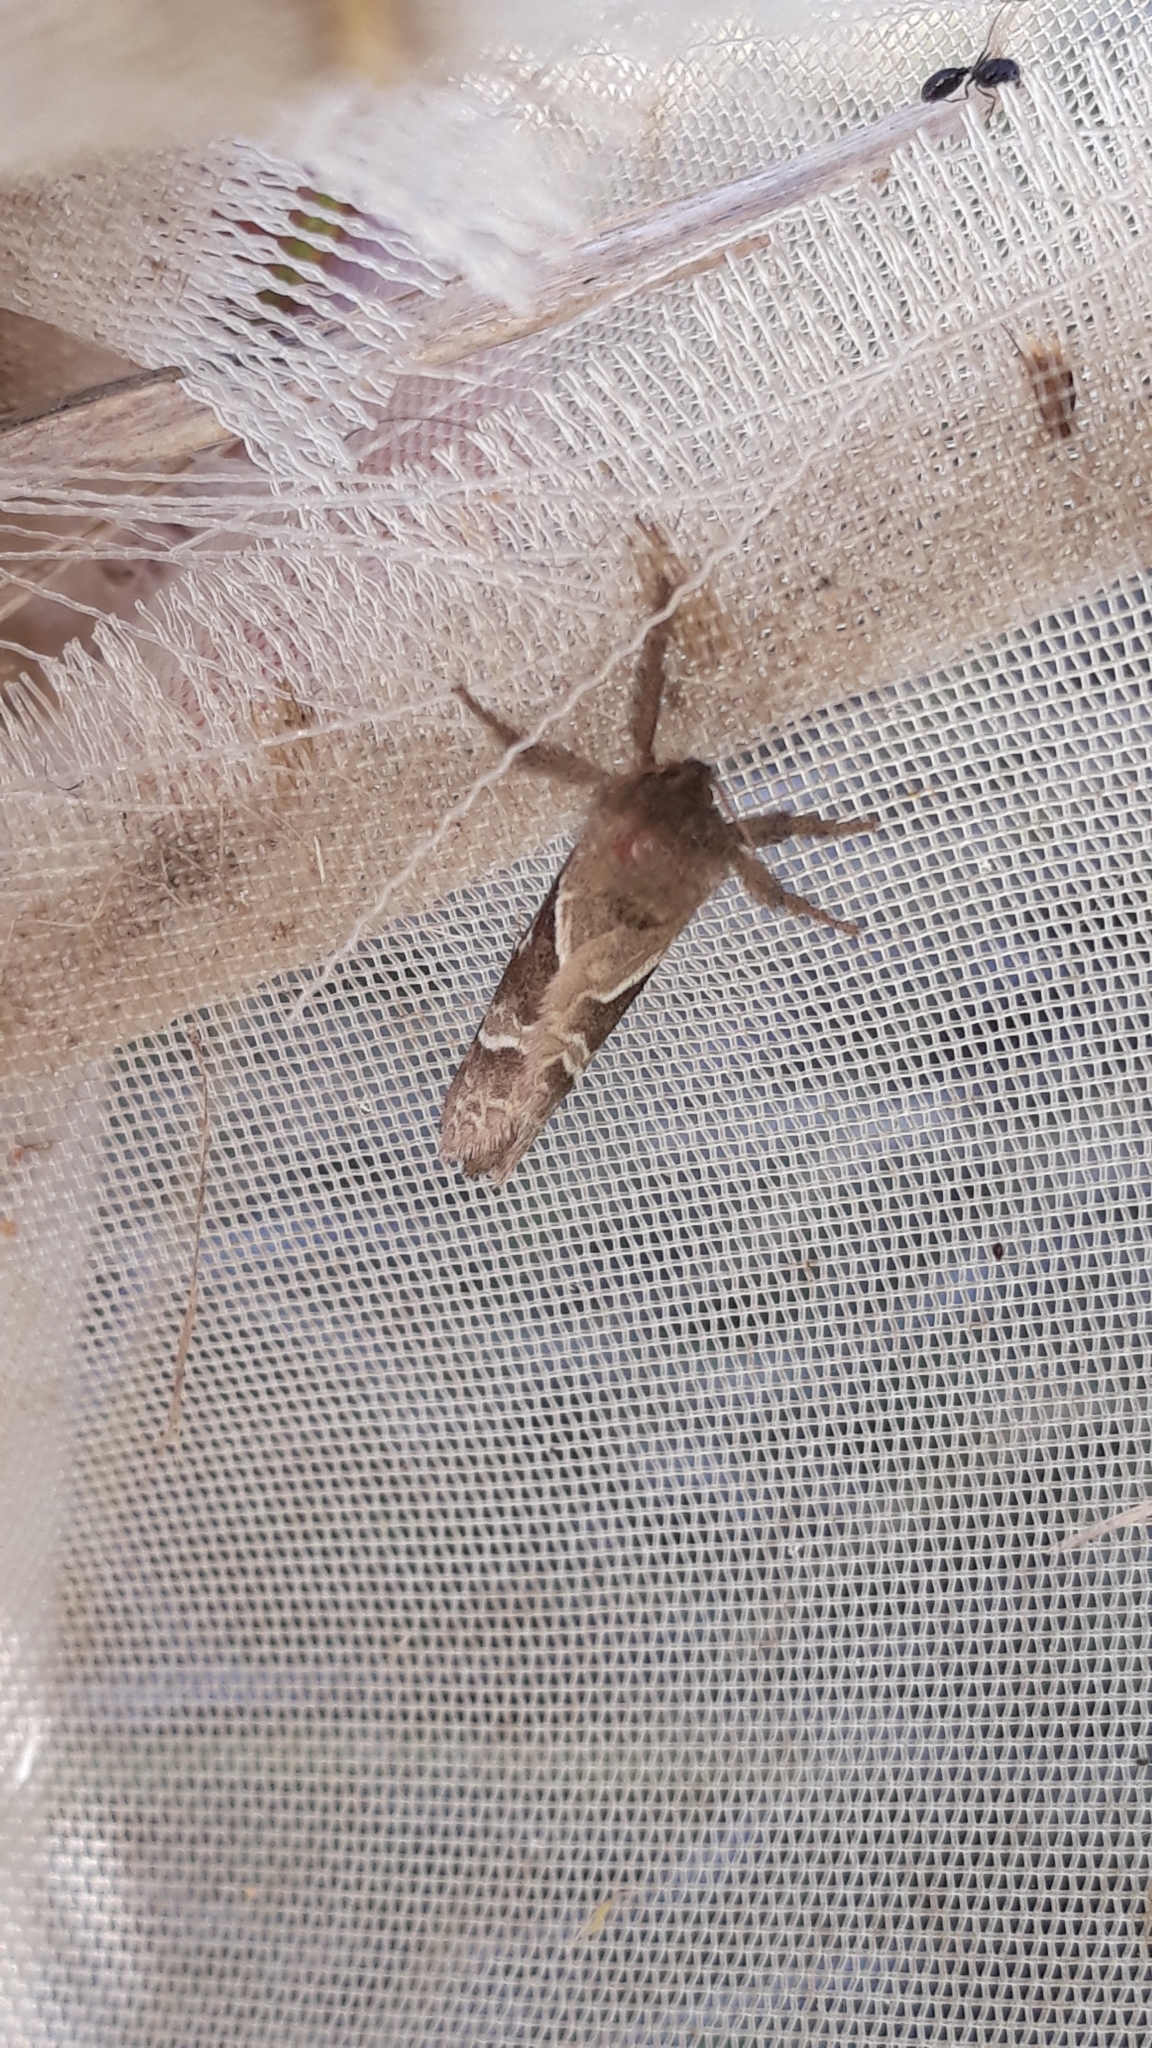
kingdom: Animalia
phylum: Arthropoda
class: Insecta
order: Lepidoptera
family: Hepialidae
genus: Triodia
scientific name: Triodia sylvina
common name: Orange swift
